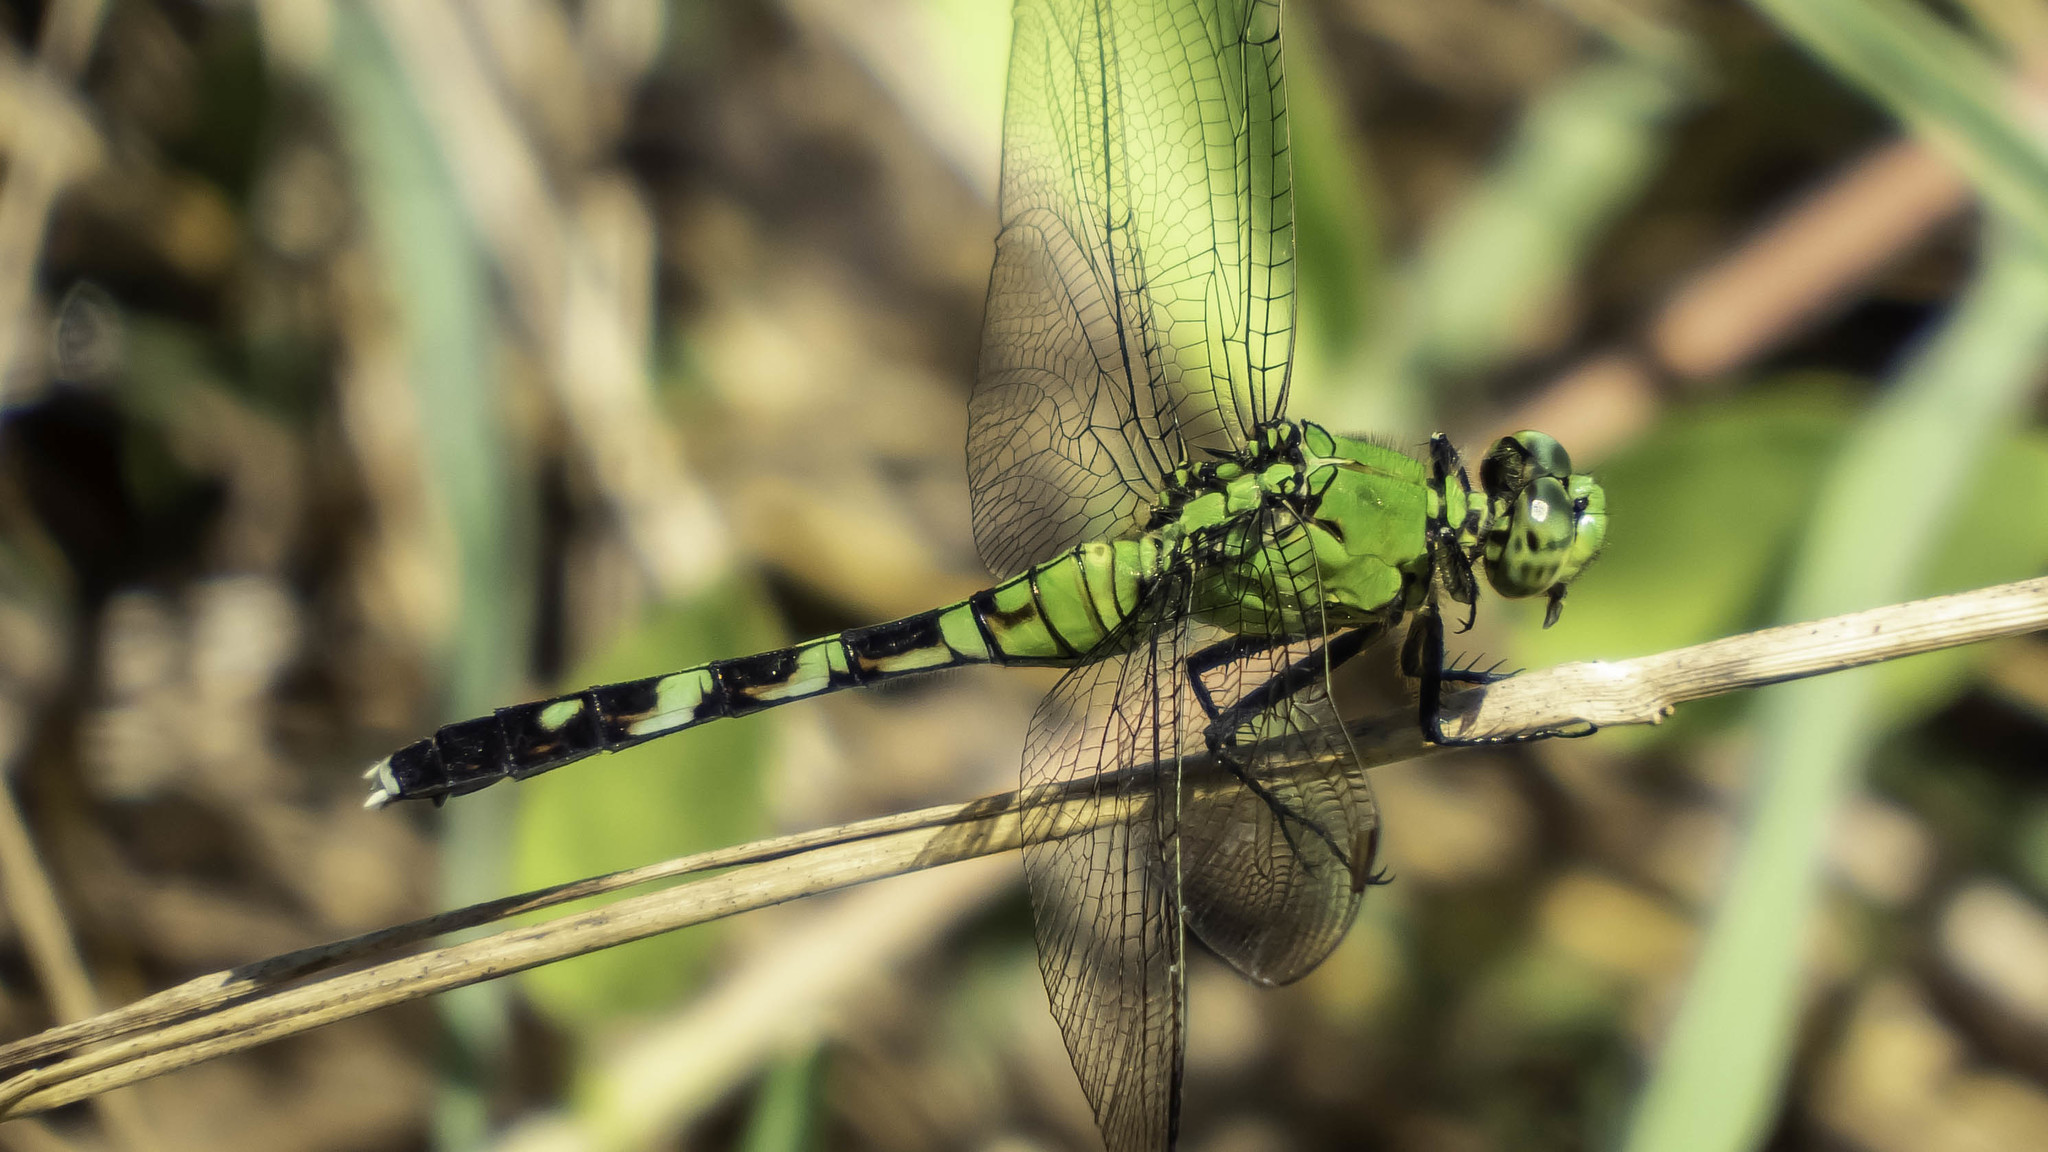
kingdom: Animalia
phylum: Arthropoda
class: Insecta
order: Odonata
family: Libellulidae
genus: Erythemis
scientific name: Erythemis simplicicollis
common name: Eastern pondhawk
